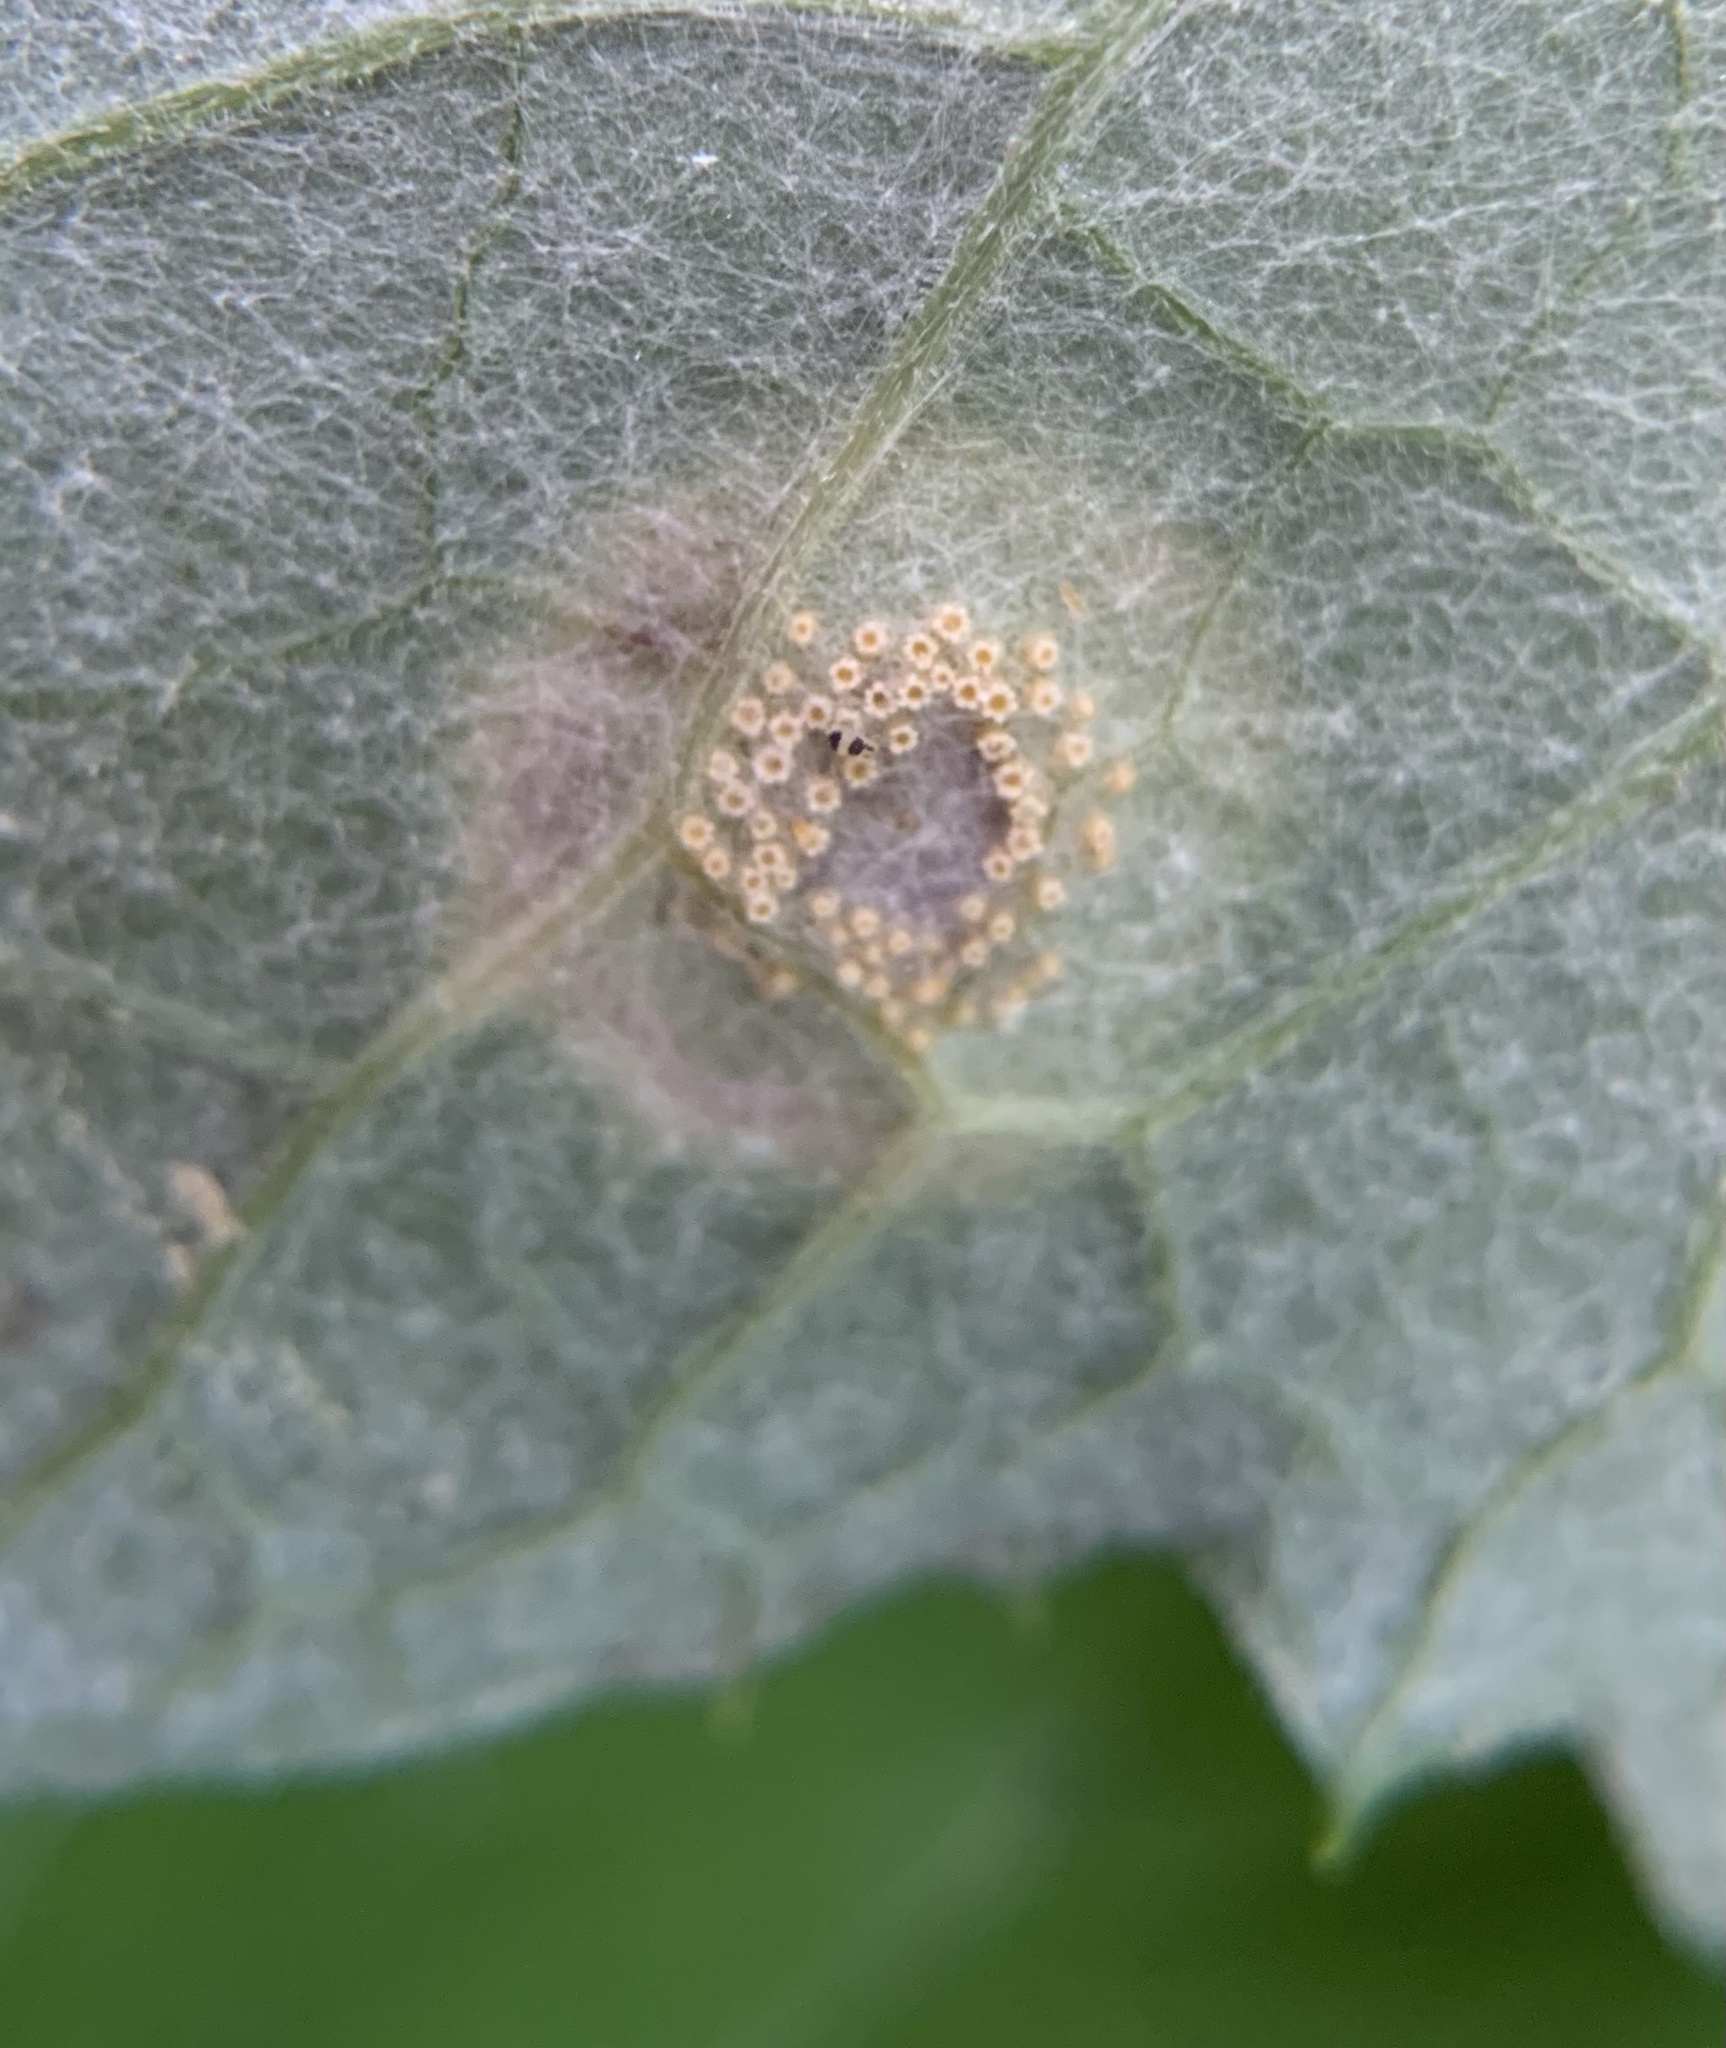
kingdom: Fungi
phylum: Basidiomycota
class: Pucciniomycetes
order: Pucciniales
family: Pucciniaceae
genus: Uromyces
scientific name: Uromyces veratri
